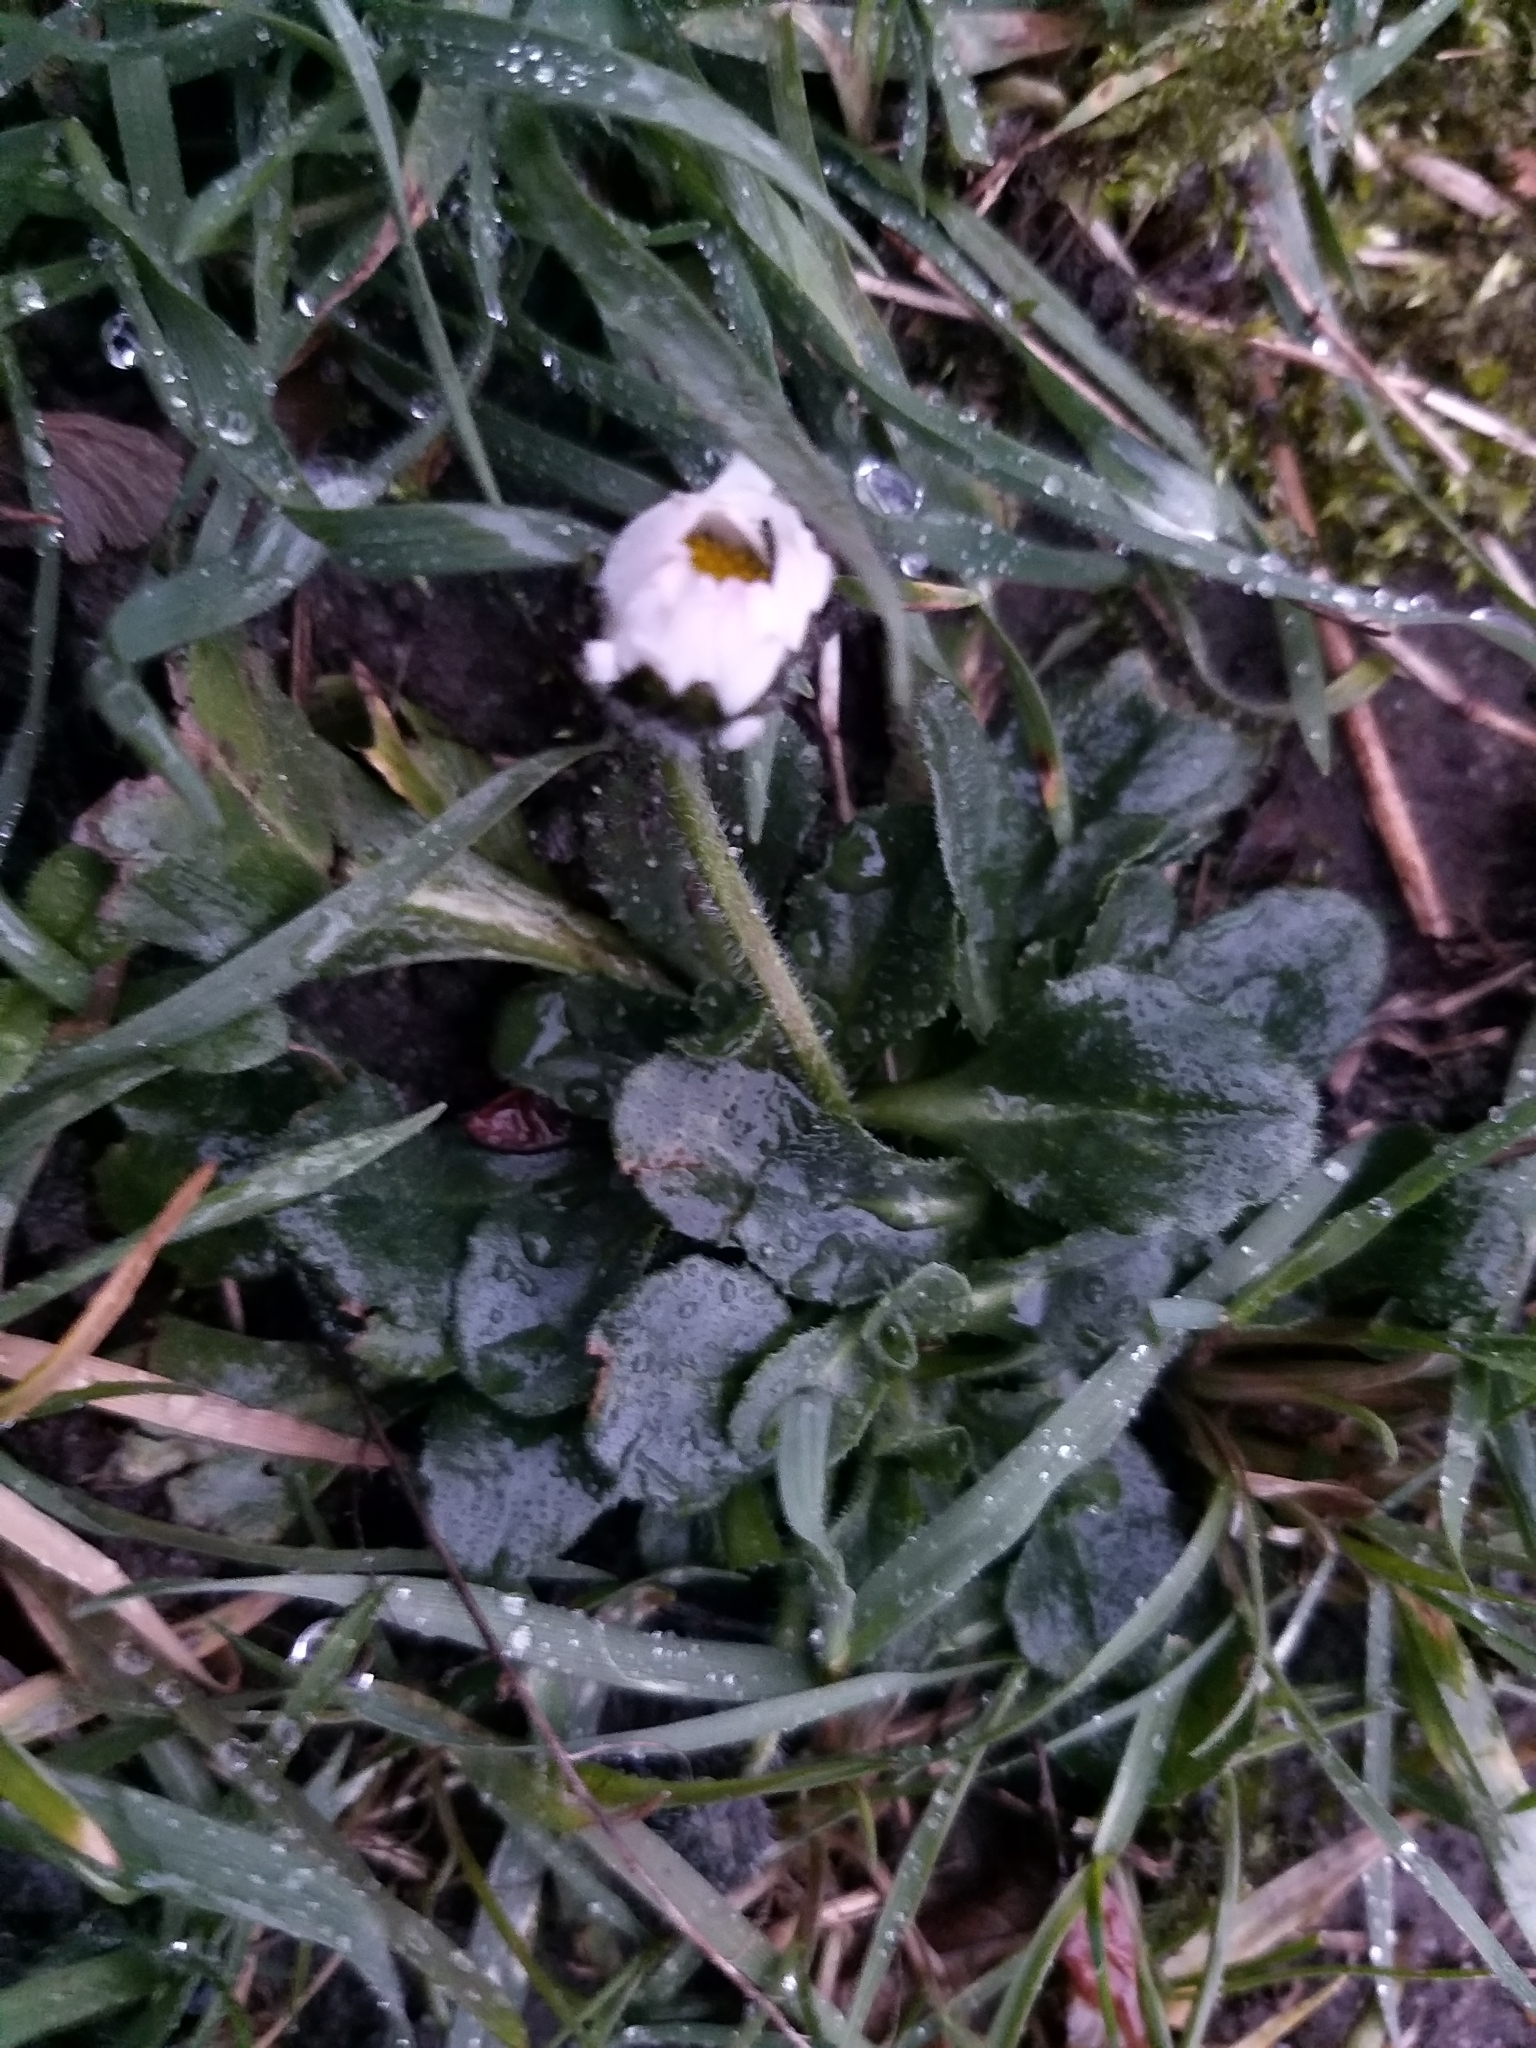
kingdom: Plantae
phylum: Tracheophyta
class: Magnoliopsida
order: Asterales
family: Asteraceae
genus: Bellis
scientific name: Bellis perennis
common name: Lawndaisy
